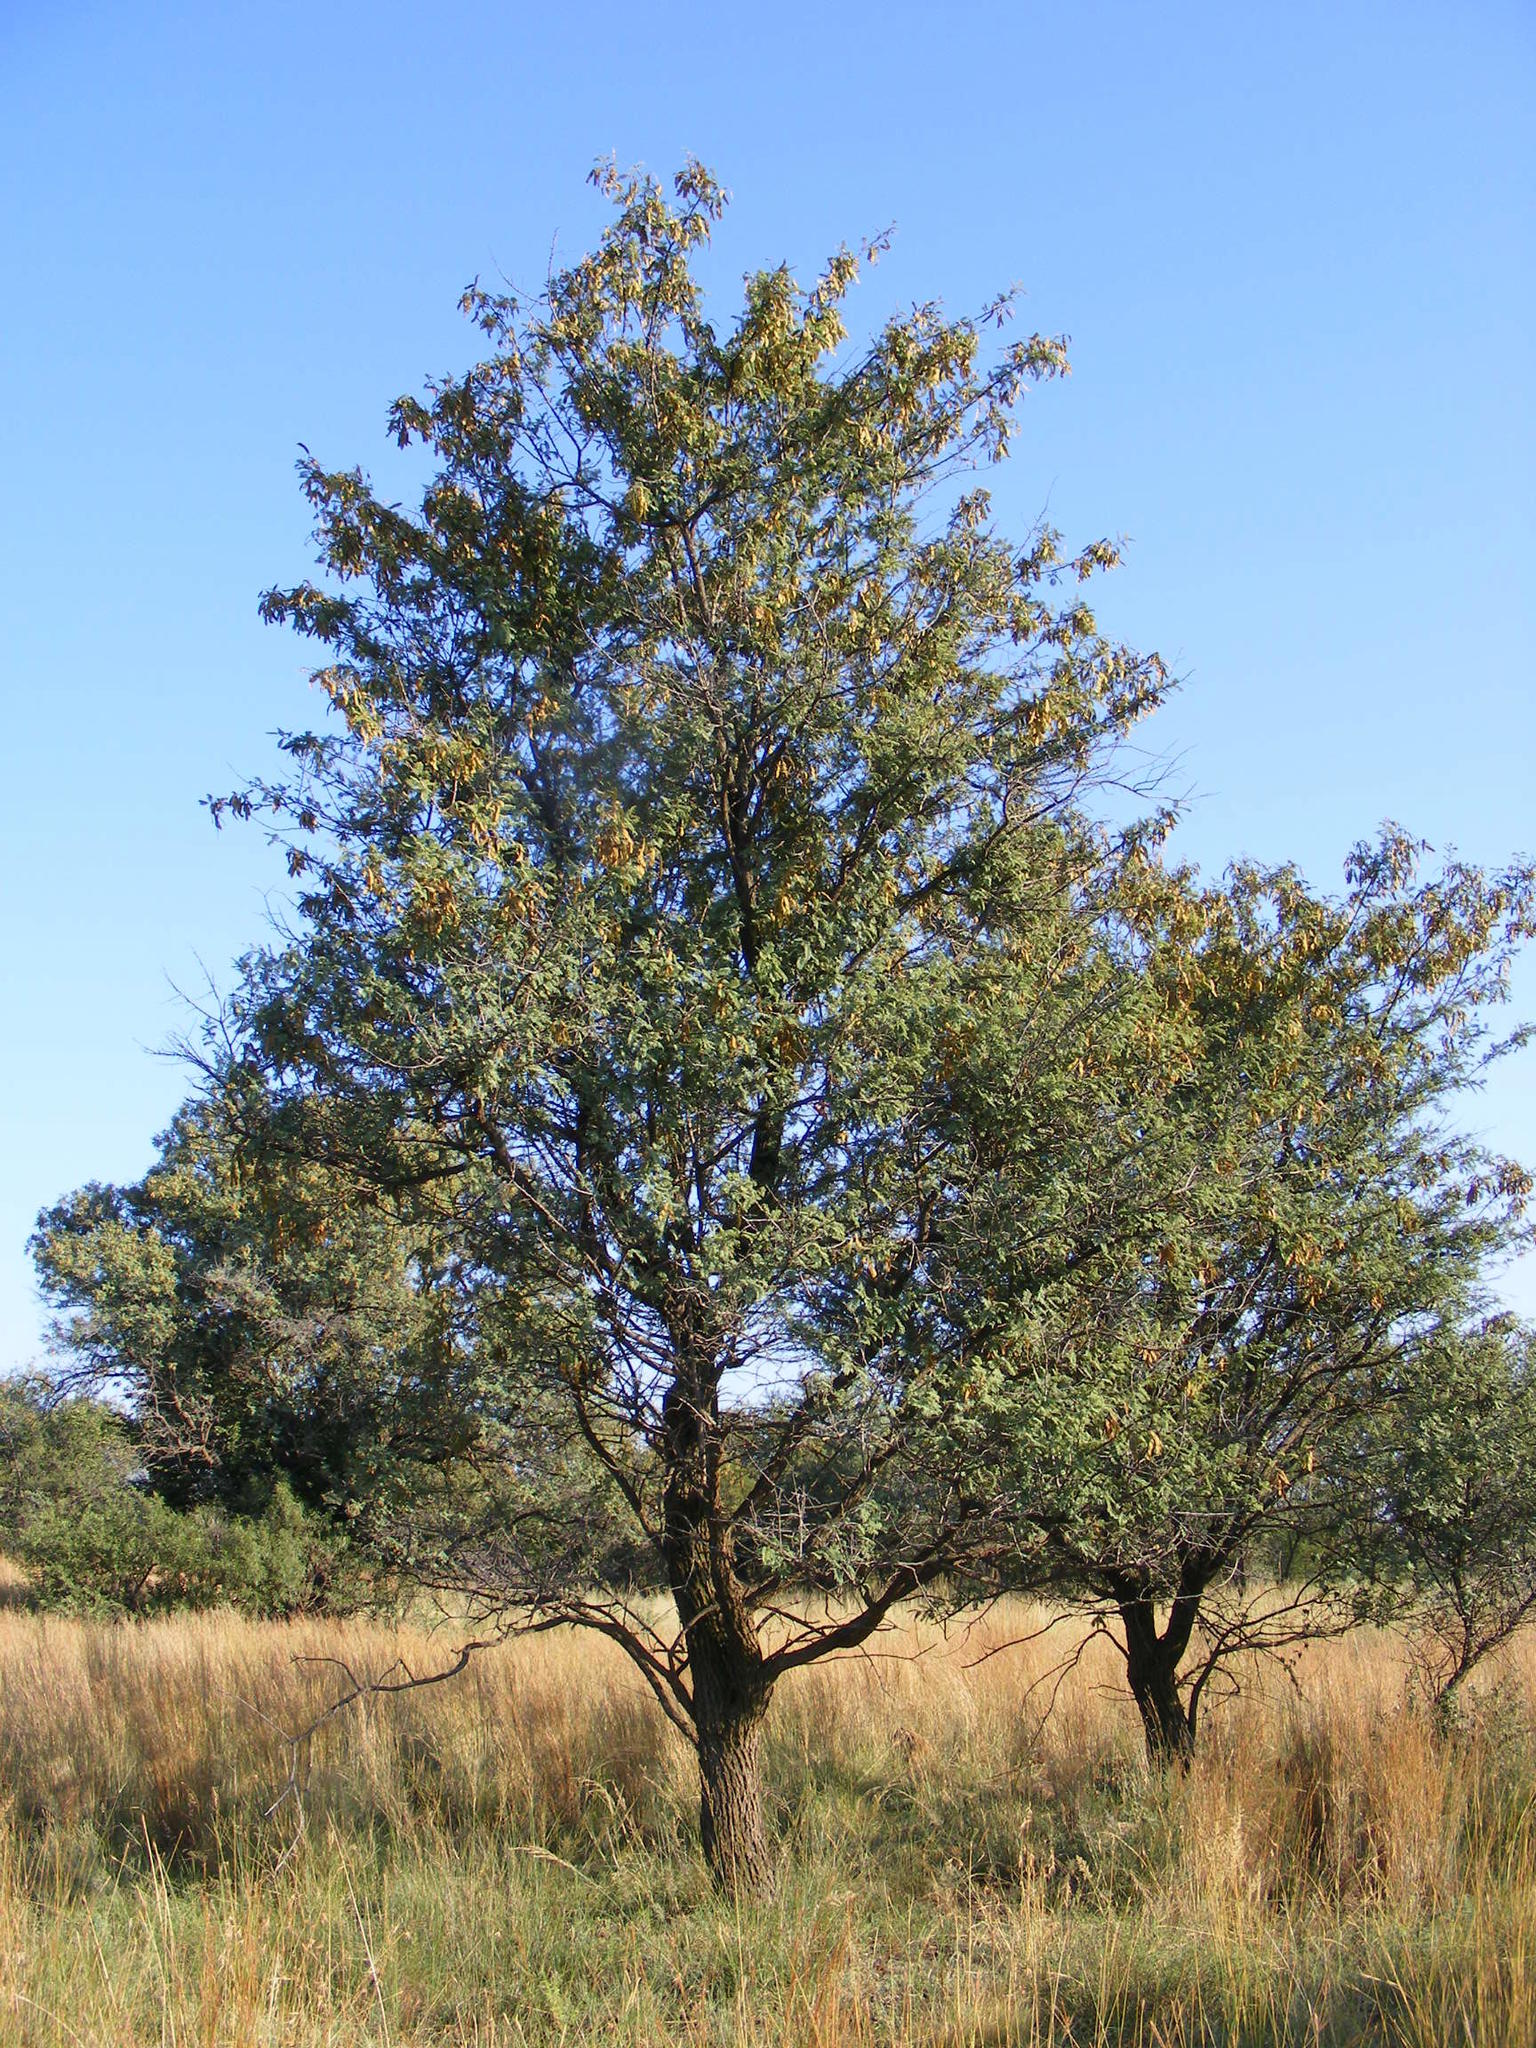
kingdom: Plantae
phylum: Tracheophyta
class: Magnoliopsida
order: Fabales
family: Fabaceae
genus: Senegalia
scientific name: Senegalia caffra
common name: Cat thorn
